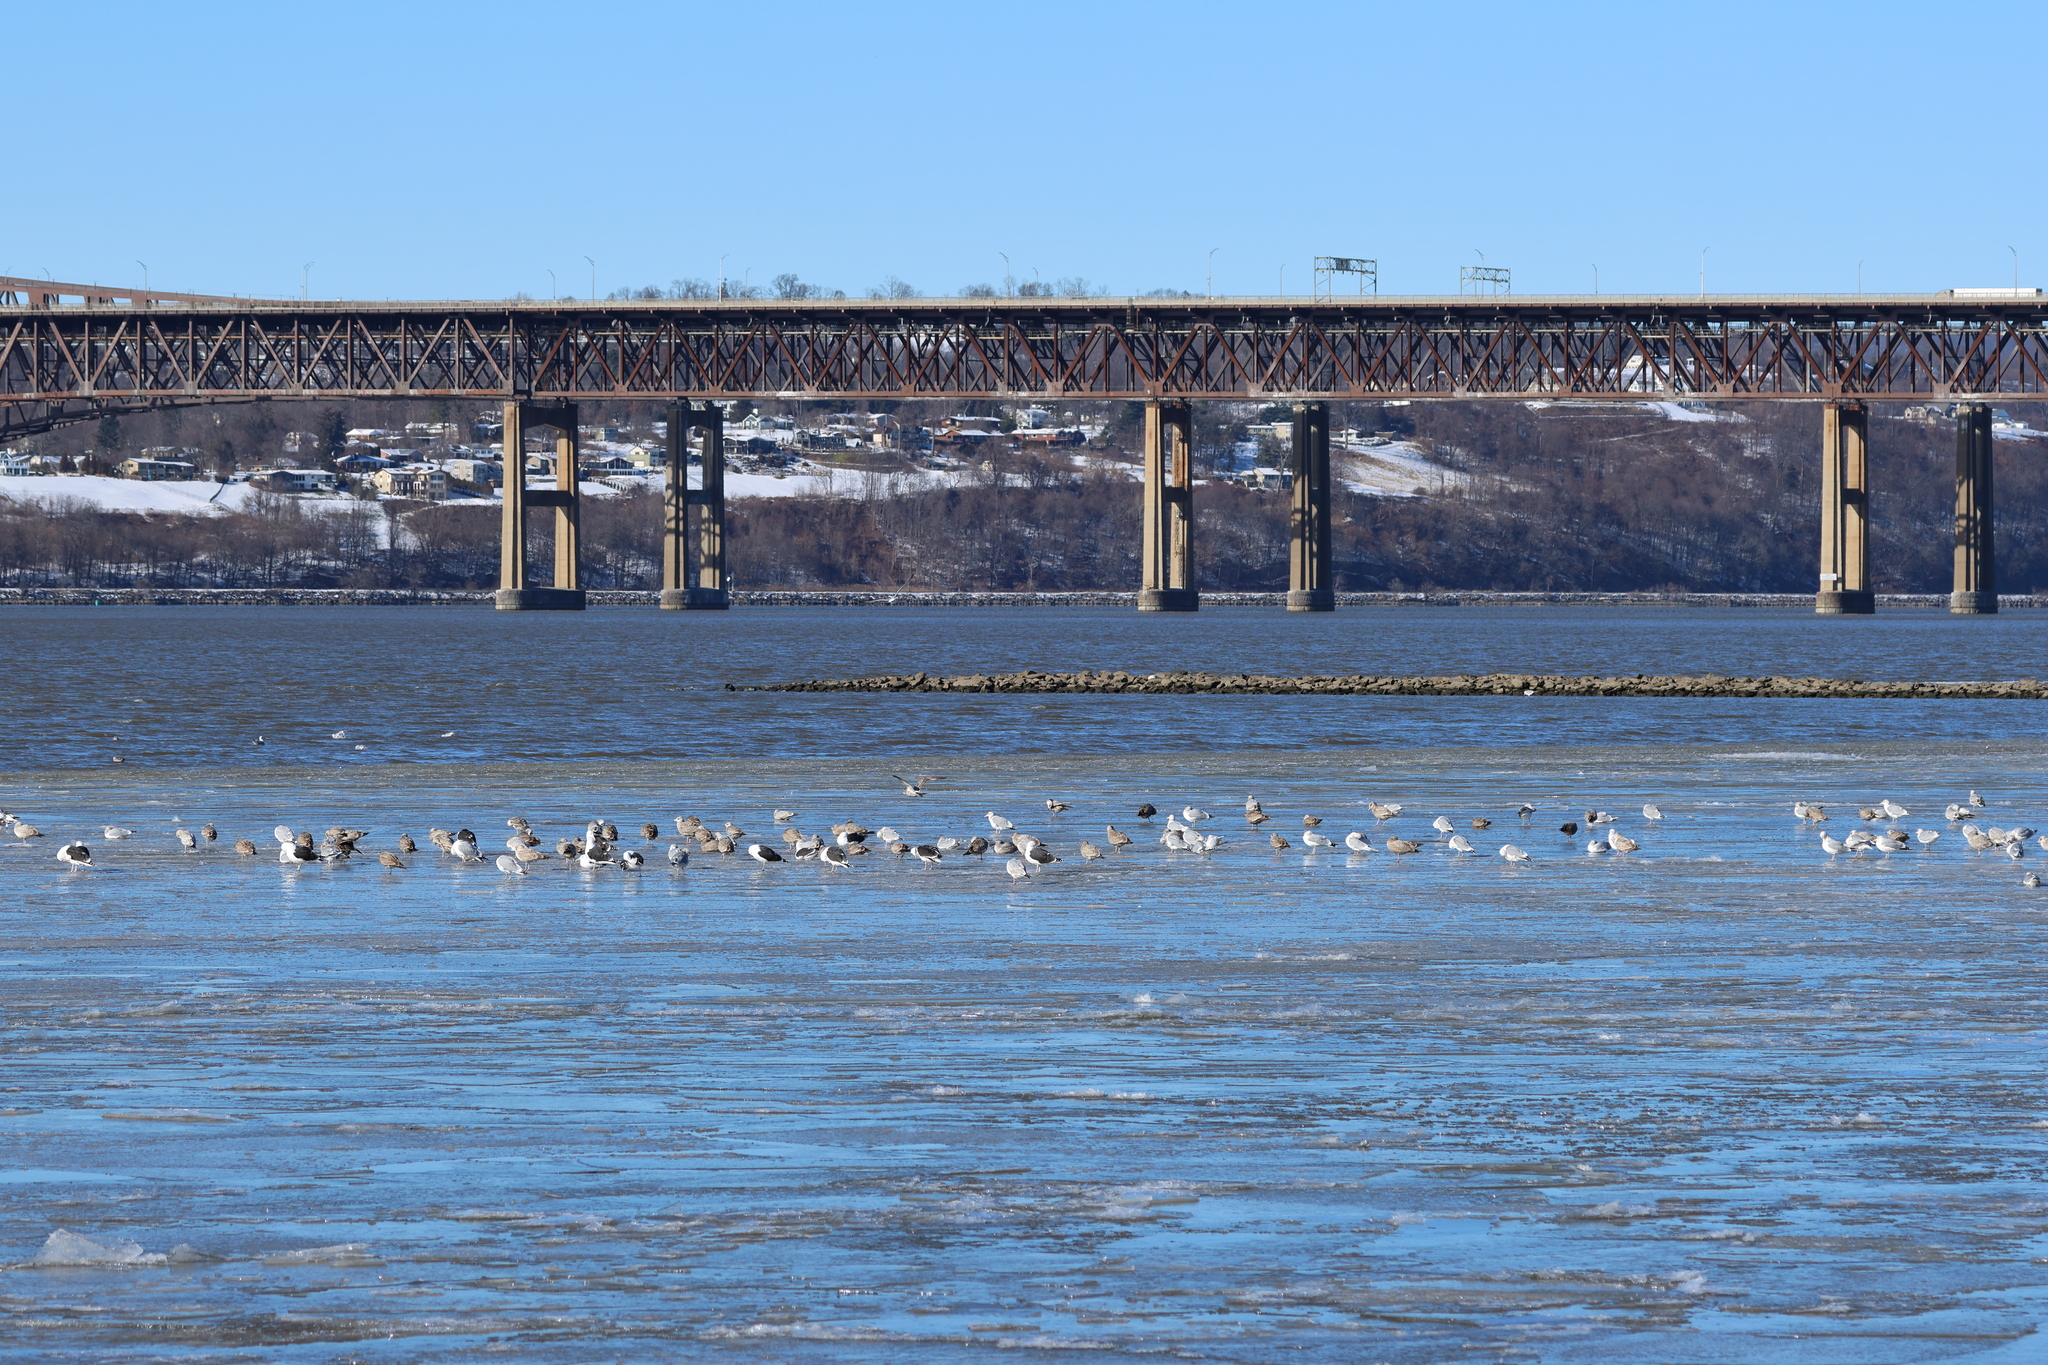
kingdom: Animalia
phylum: Chordata
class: Aves
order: Charadriiformes
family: Laridae
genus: Larus
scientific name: Larus marinus
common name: Great black-backed gull
